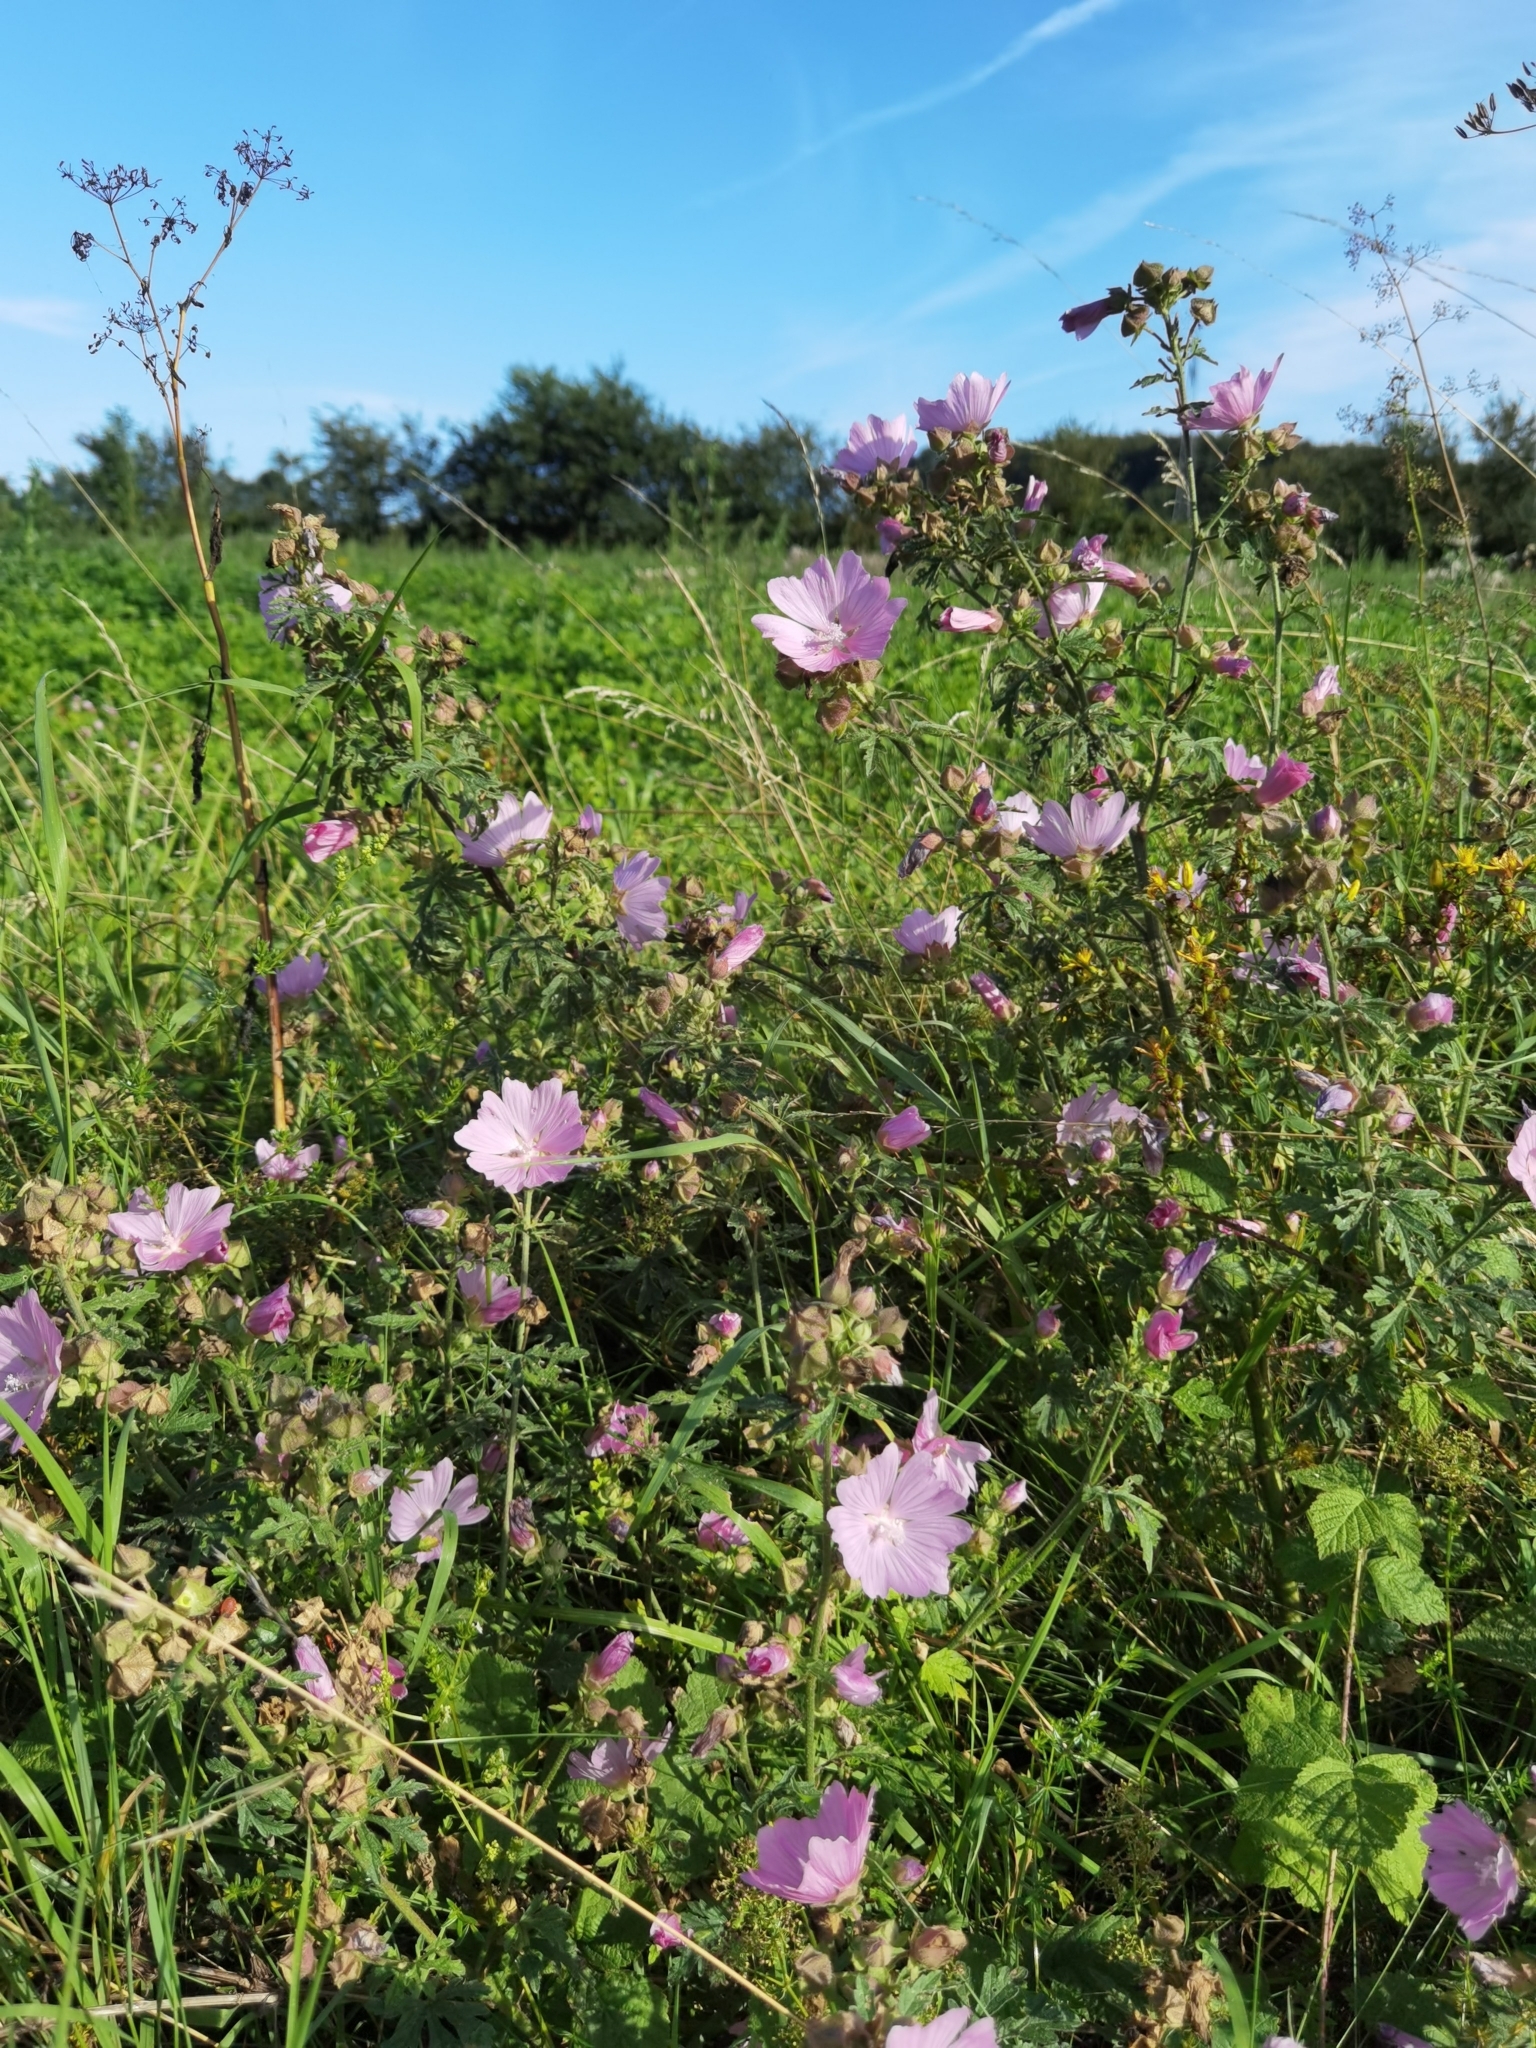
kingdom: Plantae
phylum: Tracheophyta
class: Magnoliopsida
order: Malvales
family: Malvaceae
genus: Malva
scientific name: Malva alcea
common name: Greater musk-mallow
